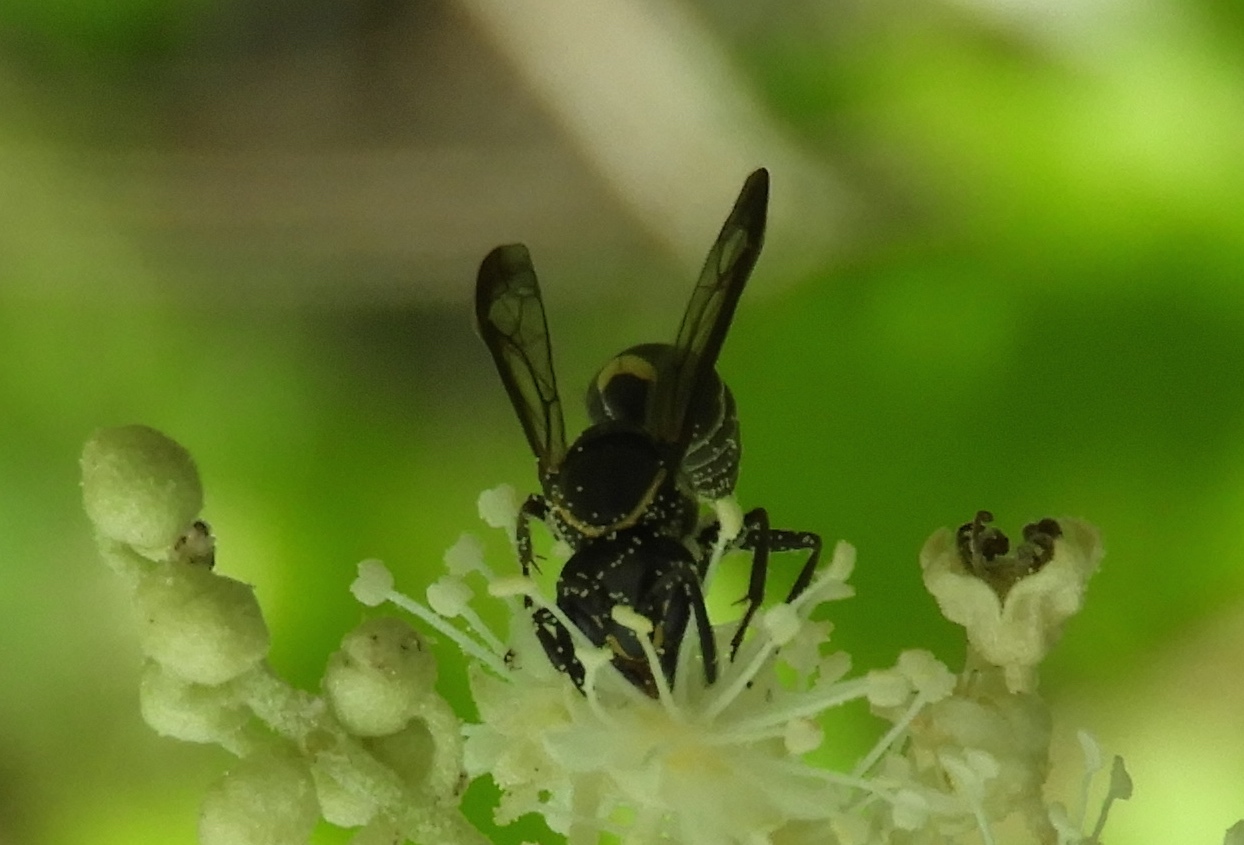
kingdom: Animalia
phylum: Arthropoda
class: Insecta
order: Hymenoptera
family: Vespidae
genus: Myrapetra
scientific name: Myrapetra
